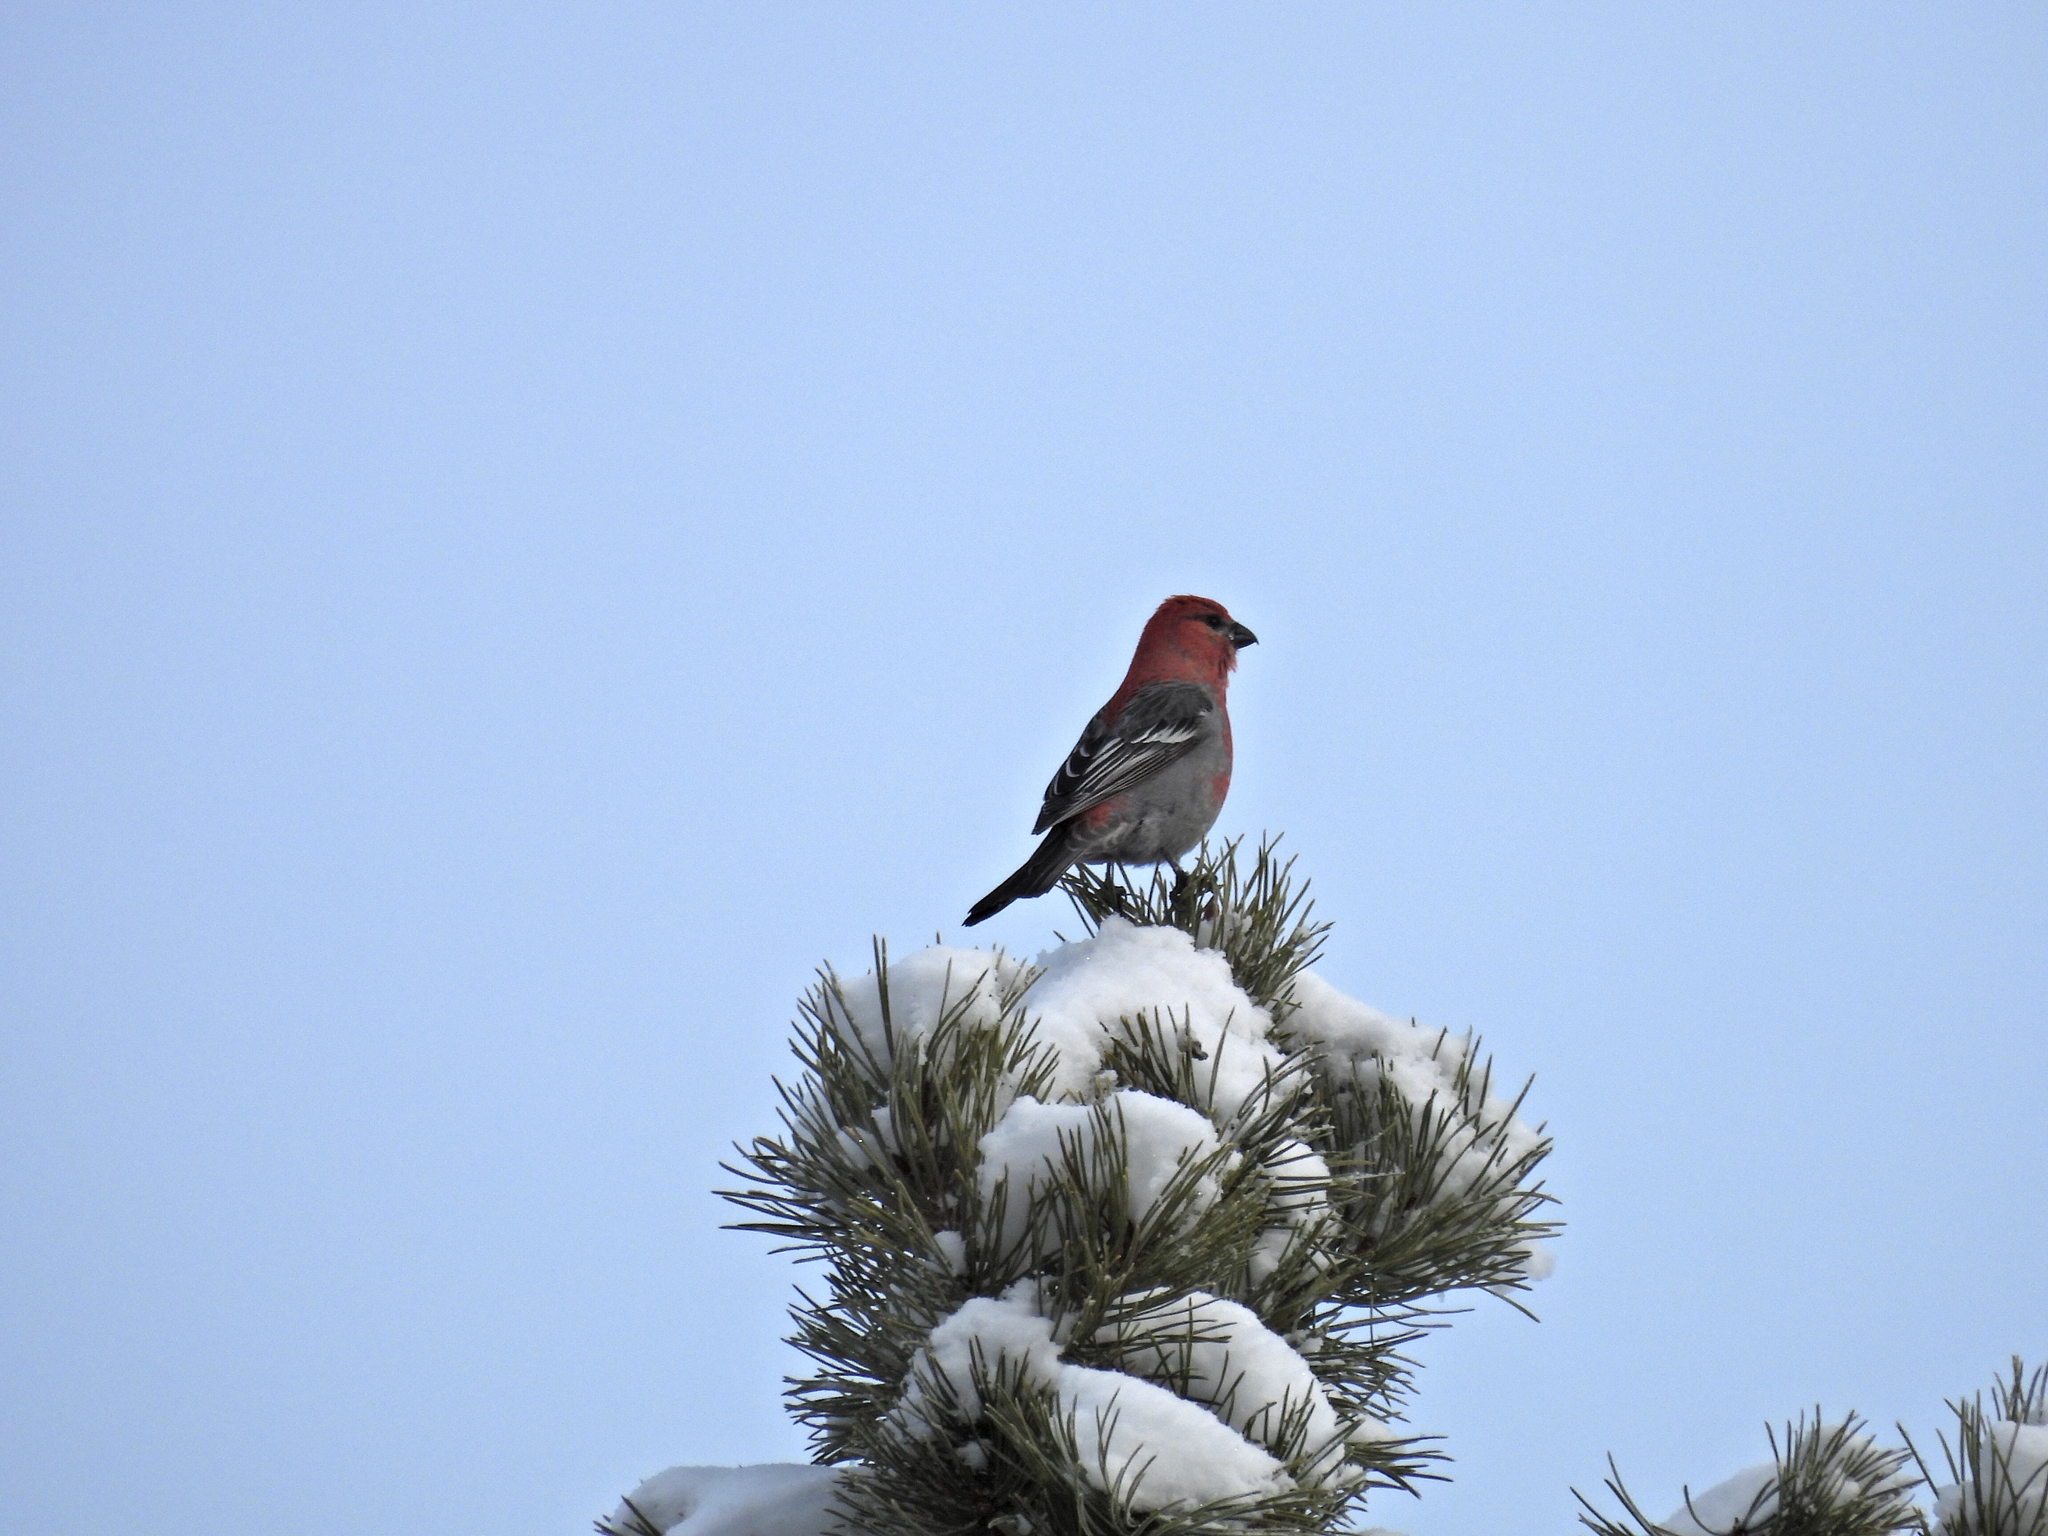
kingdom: Animalia
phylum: Chordata
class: Aves
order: Passeriformes
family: Fringillidae
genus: Pinicola
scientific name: Pinicola enucleator
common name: Pine grosbeak
